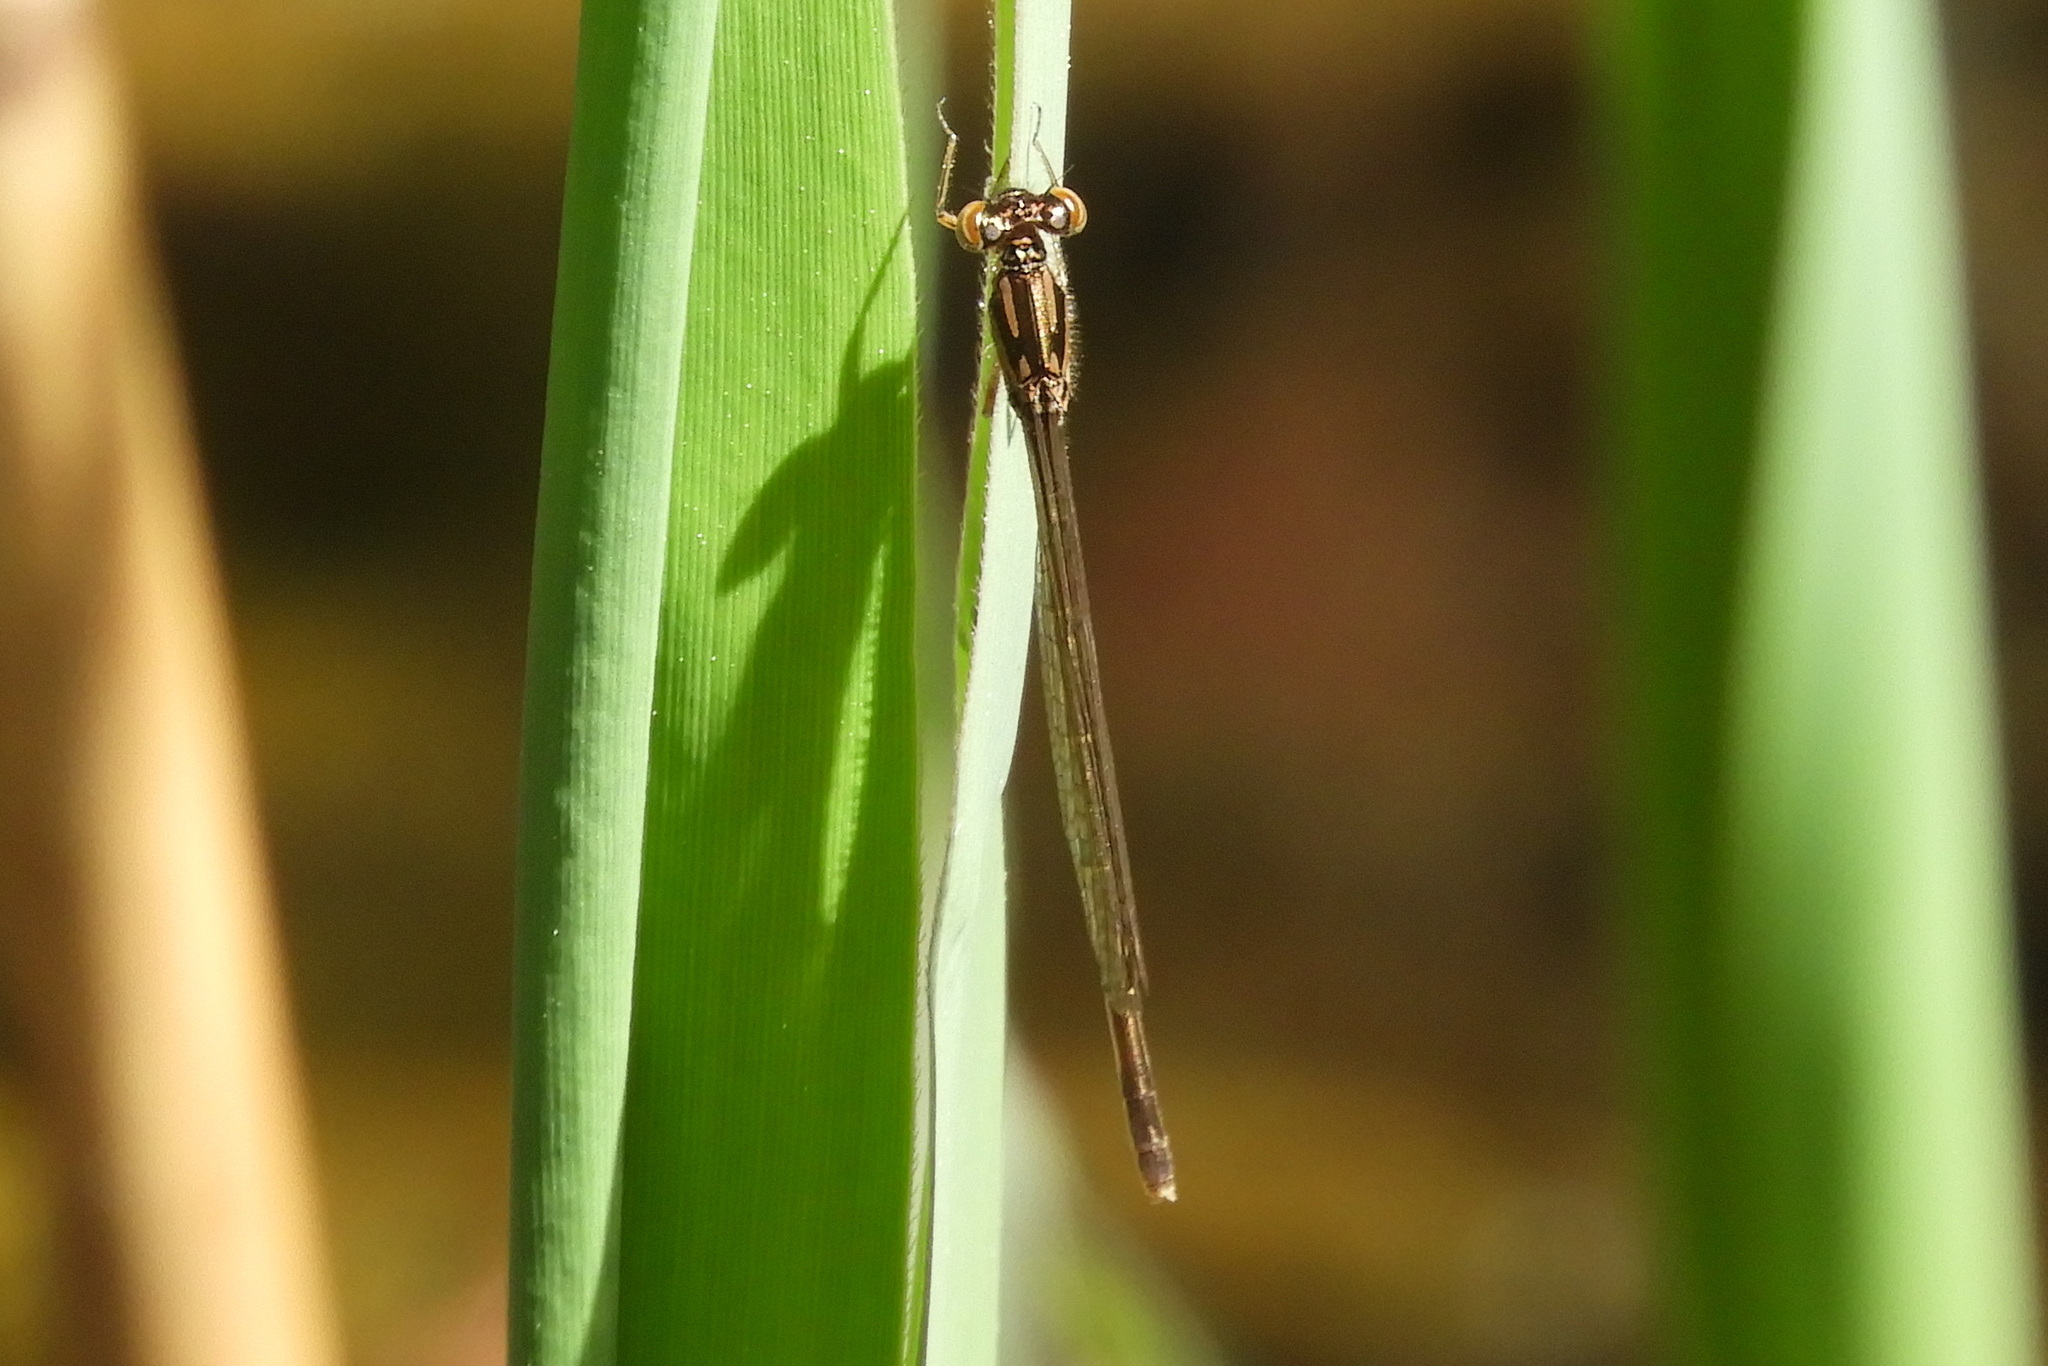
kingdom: Animalia
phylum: Arthropoda
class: Insecta
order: Odonata
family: Coenagrionidae
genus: Ischnura
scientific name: Ischnura posita
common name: Fragile forktail
